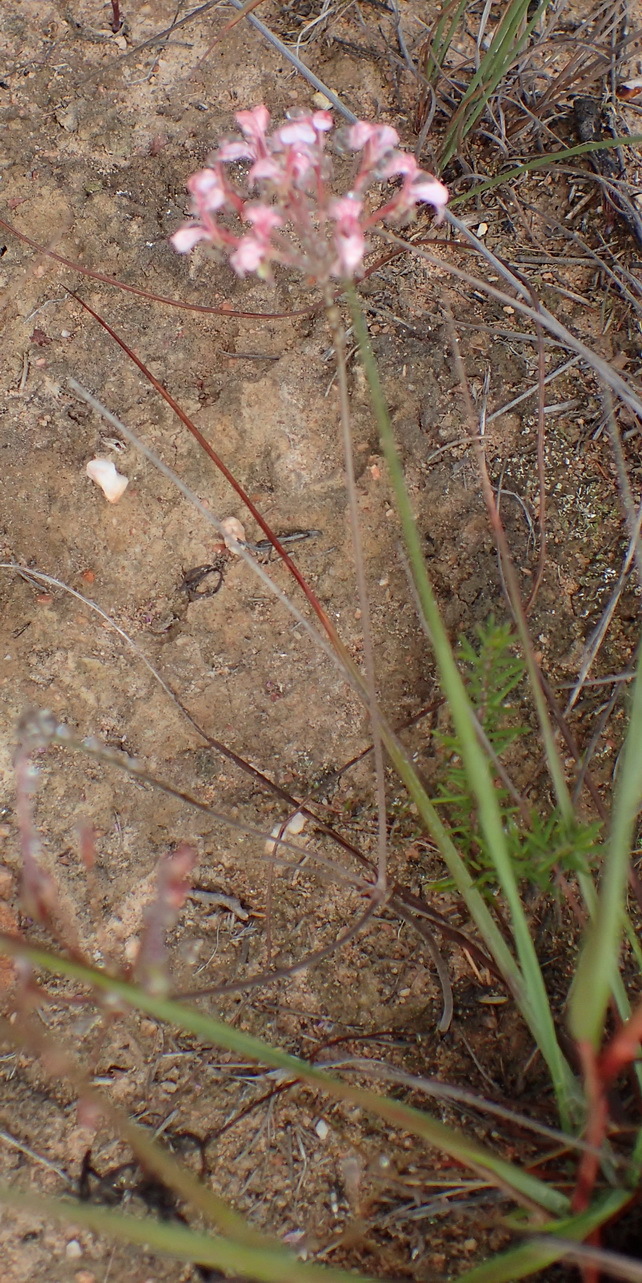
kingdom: Plantae
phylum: Tracheophyta
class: Magnoliopsida
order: Geraniales
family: Geraniaceae
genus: Pelargonium
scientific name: Pelargonium gracillimum
